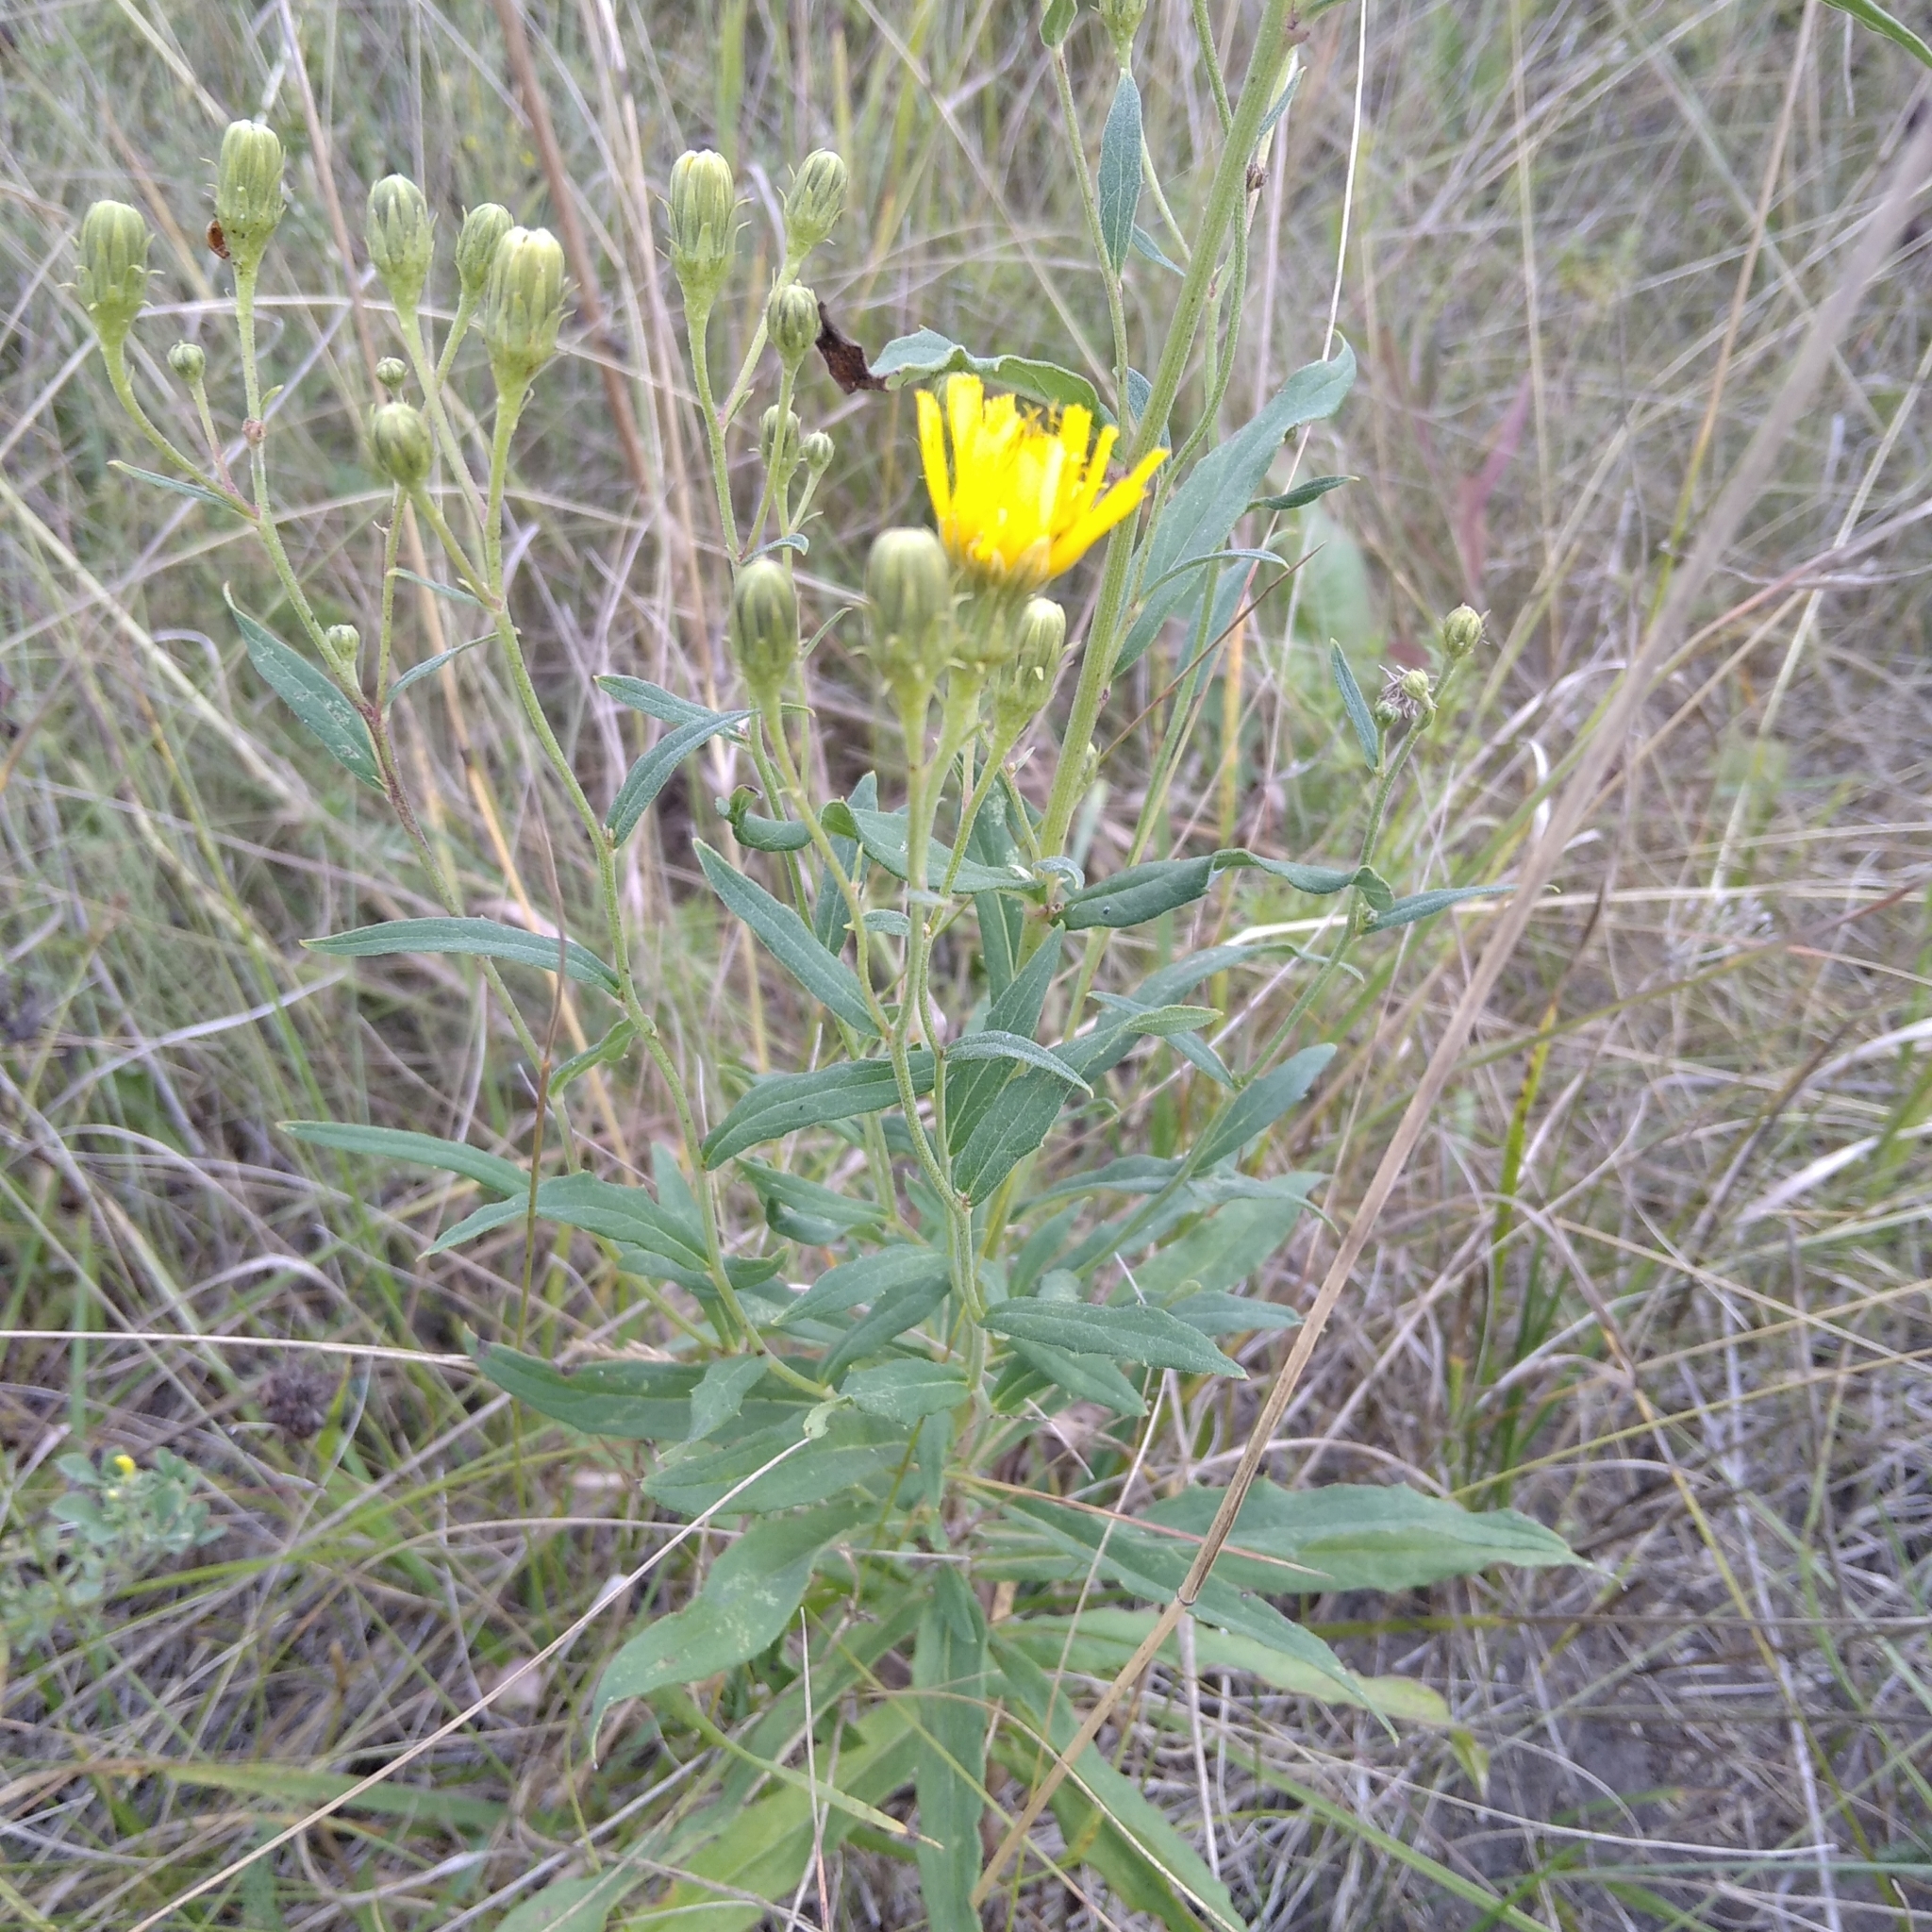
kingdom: Plantae
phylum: Tracheophyta
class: Magnoliopsida
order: Asterales
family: Asteraceae
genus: Hieracium
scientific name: Hieracium umbellatum
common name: Northern hawkweed
